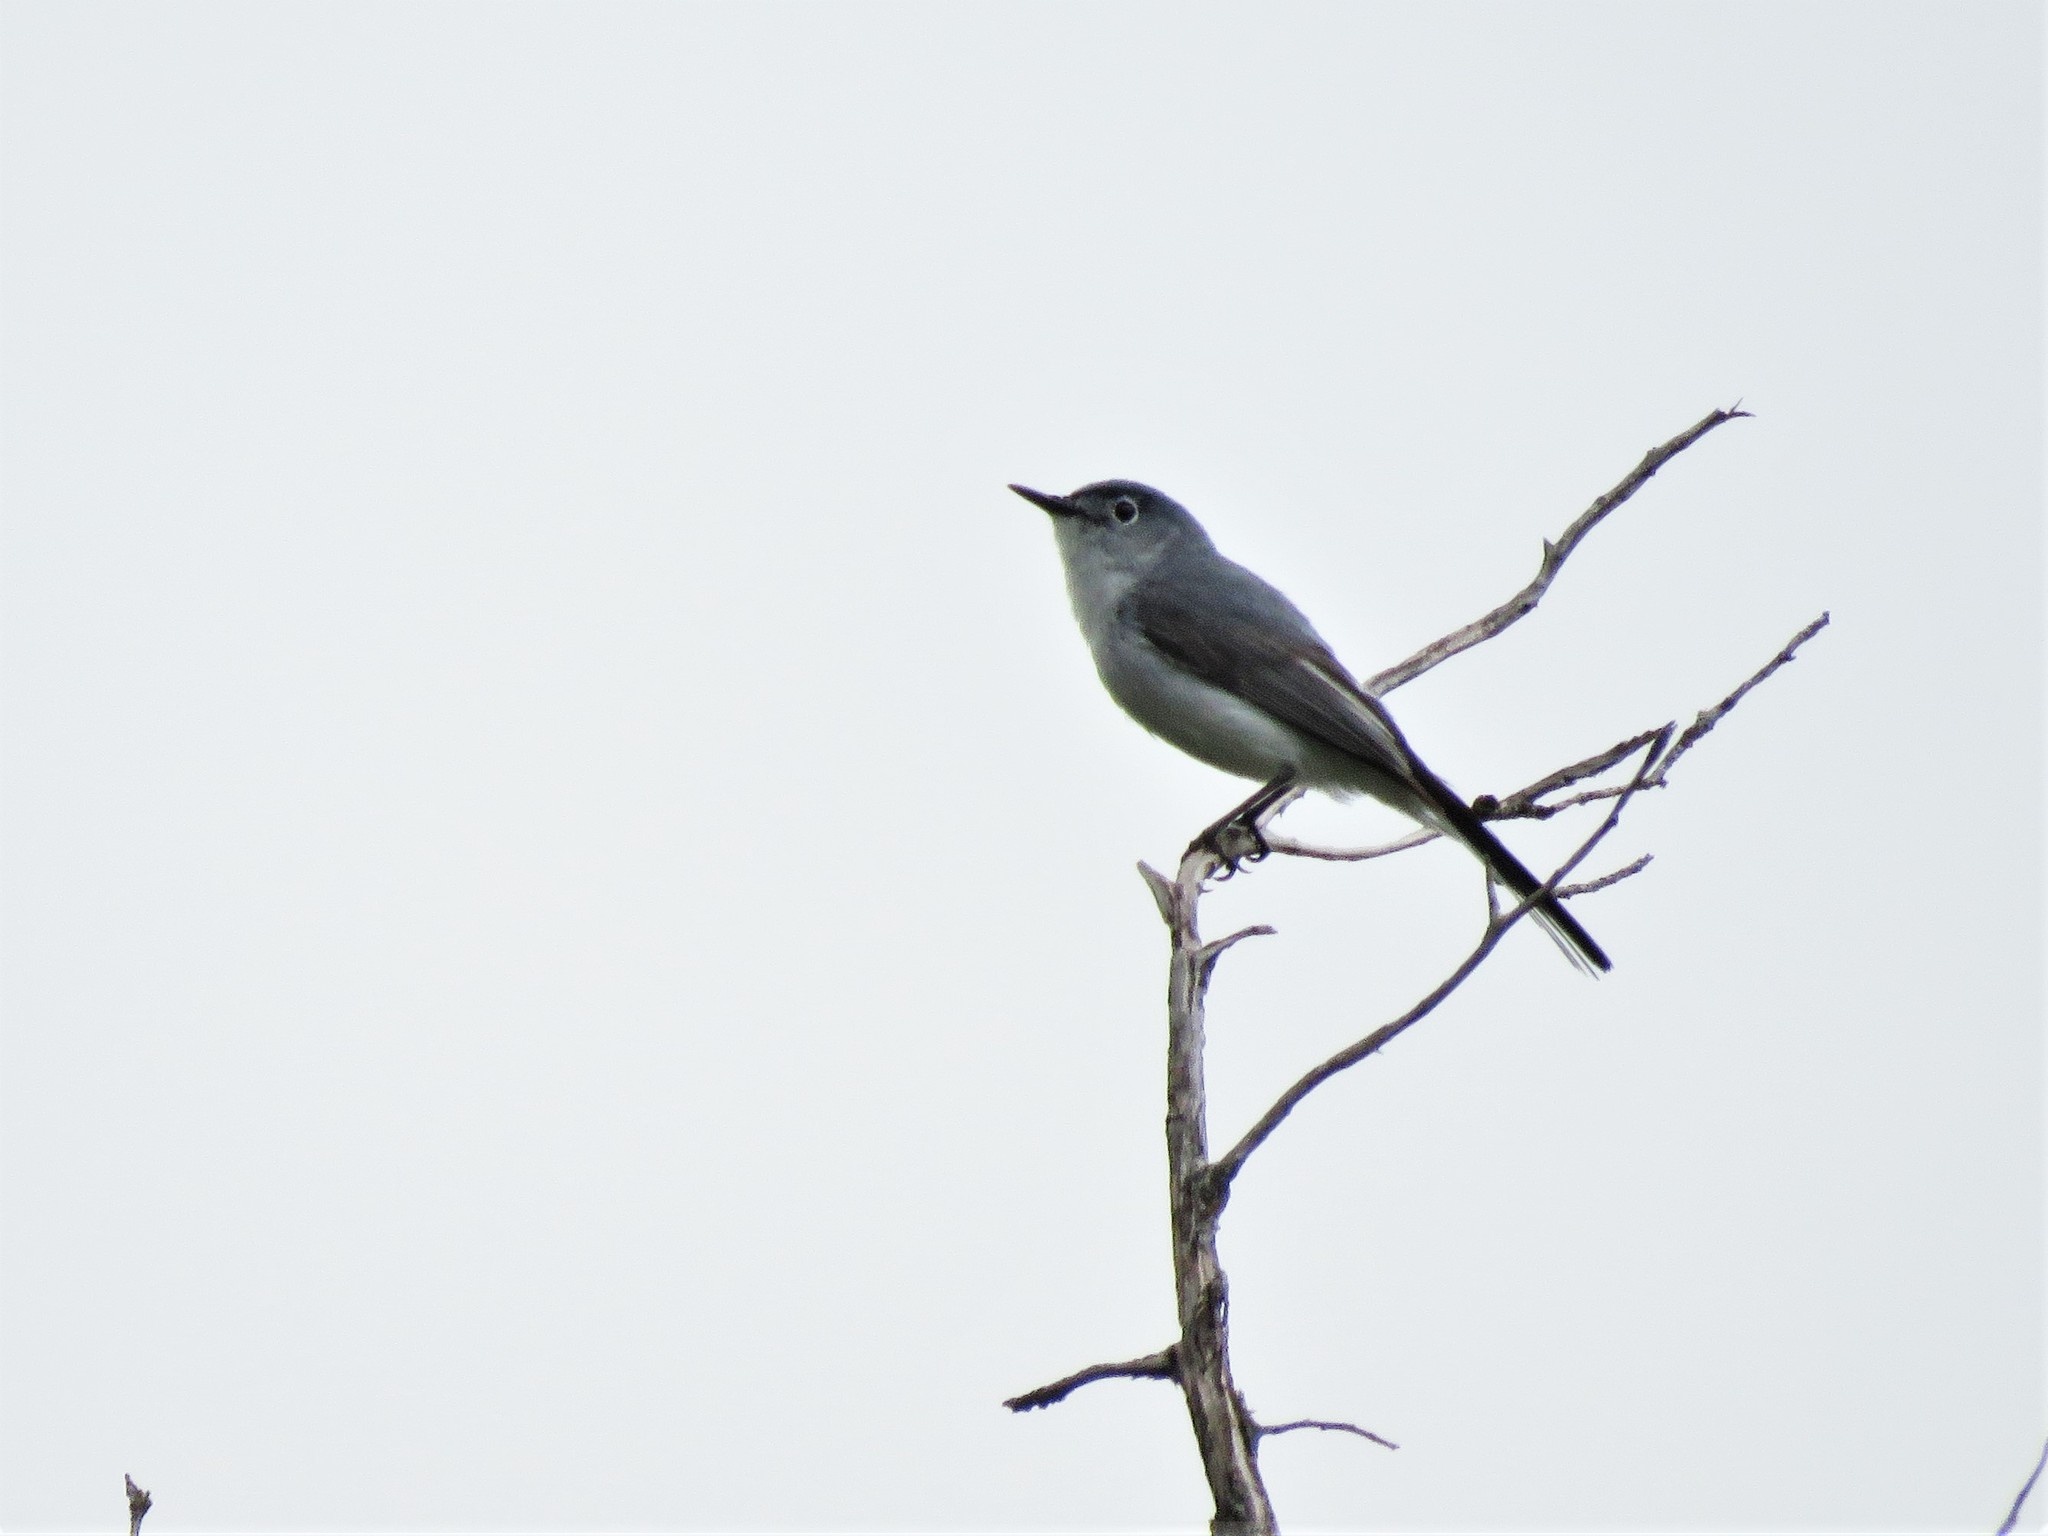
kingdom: Animalia
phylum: Chordata
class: Aves
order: Passeriformes
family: Polioptilidae
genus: Polioptila
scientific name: Polioptila caerulea
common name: Blue-gray gnatcatcher
